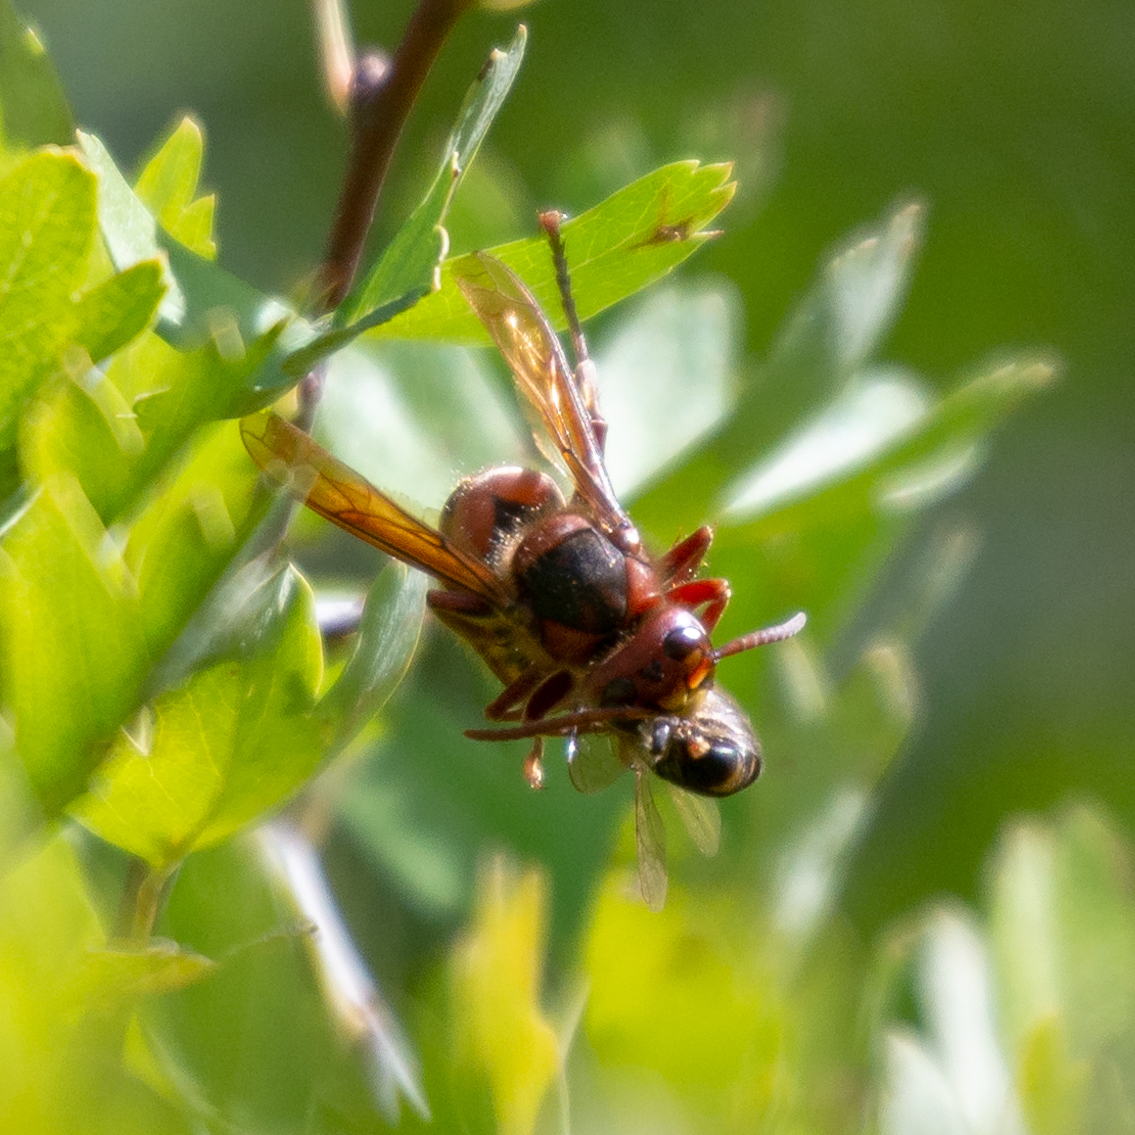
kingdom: Animalia
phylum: Arthropoda
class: Insecta
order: Hymenoptera
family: Vespidae
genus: Vespa
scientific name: Vespa crabro
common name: Hornet
